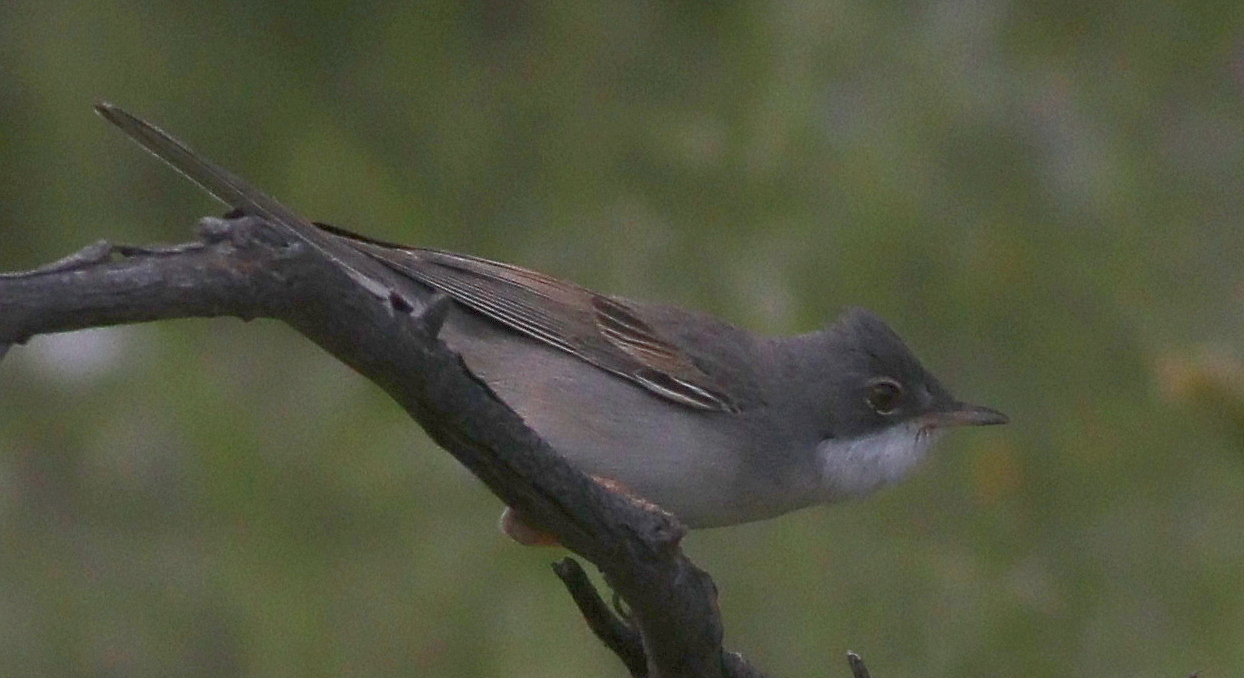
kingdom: Animalia
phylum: Chordata
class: Aves
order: Passeriformes
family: Sylviidae
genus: Sylvia
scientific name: Sylvia communis
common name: Common whitethroat
